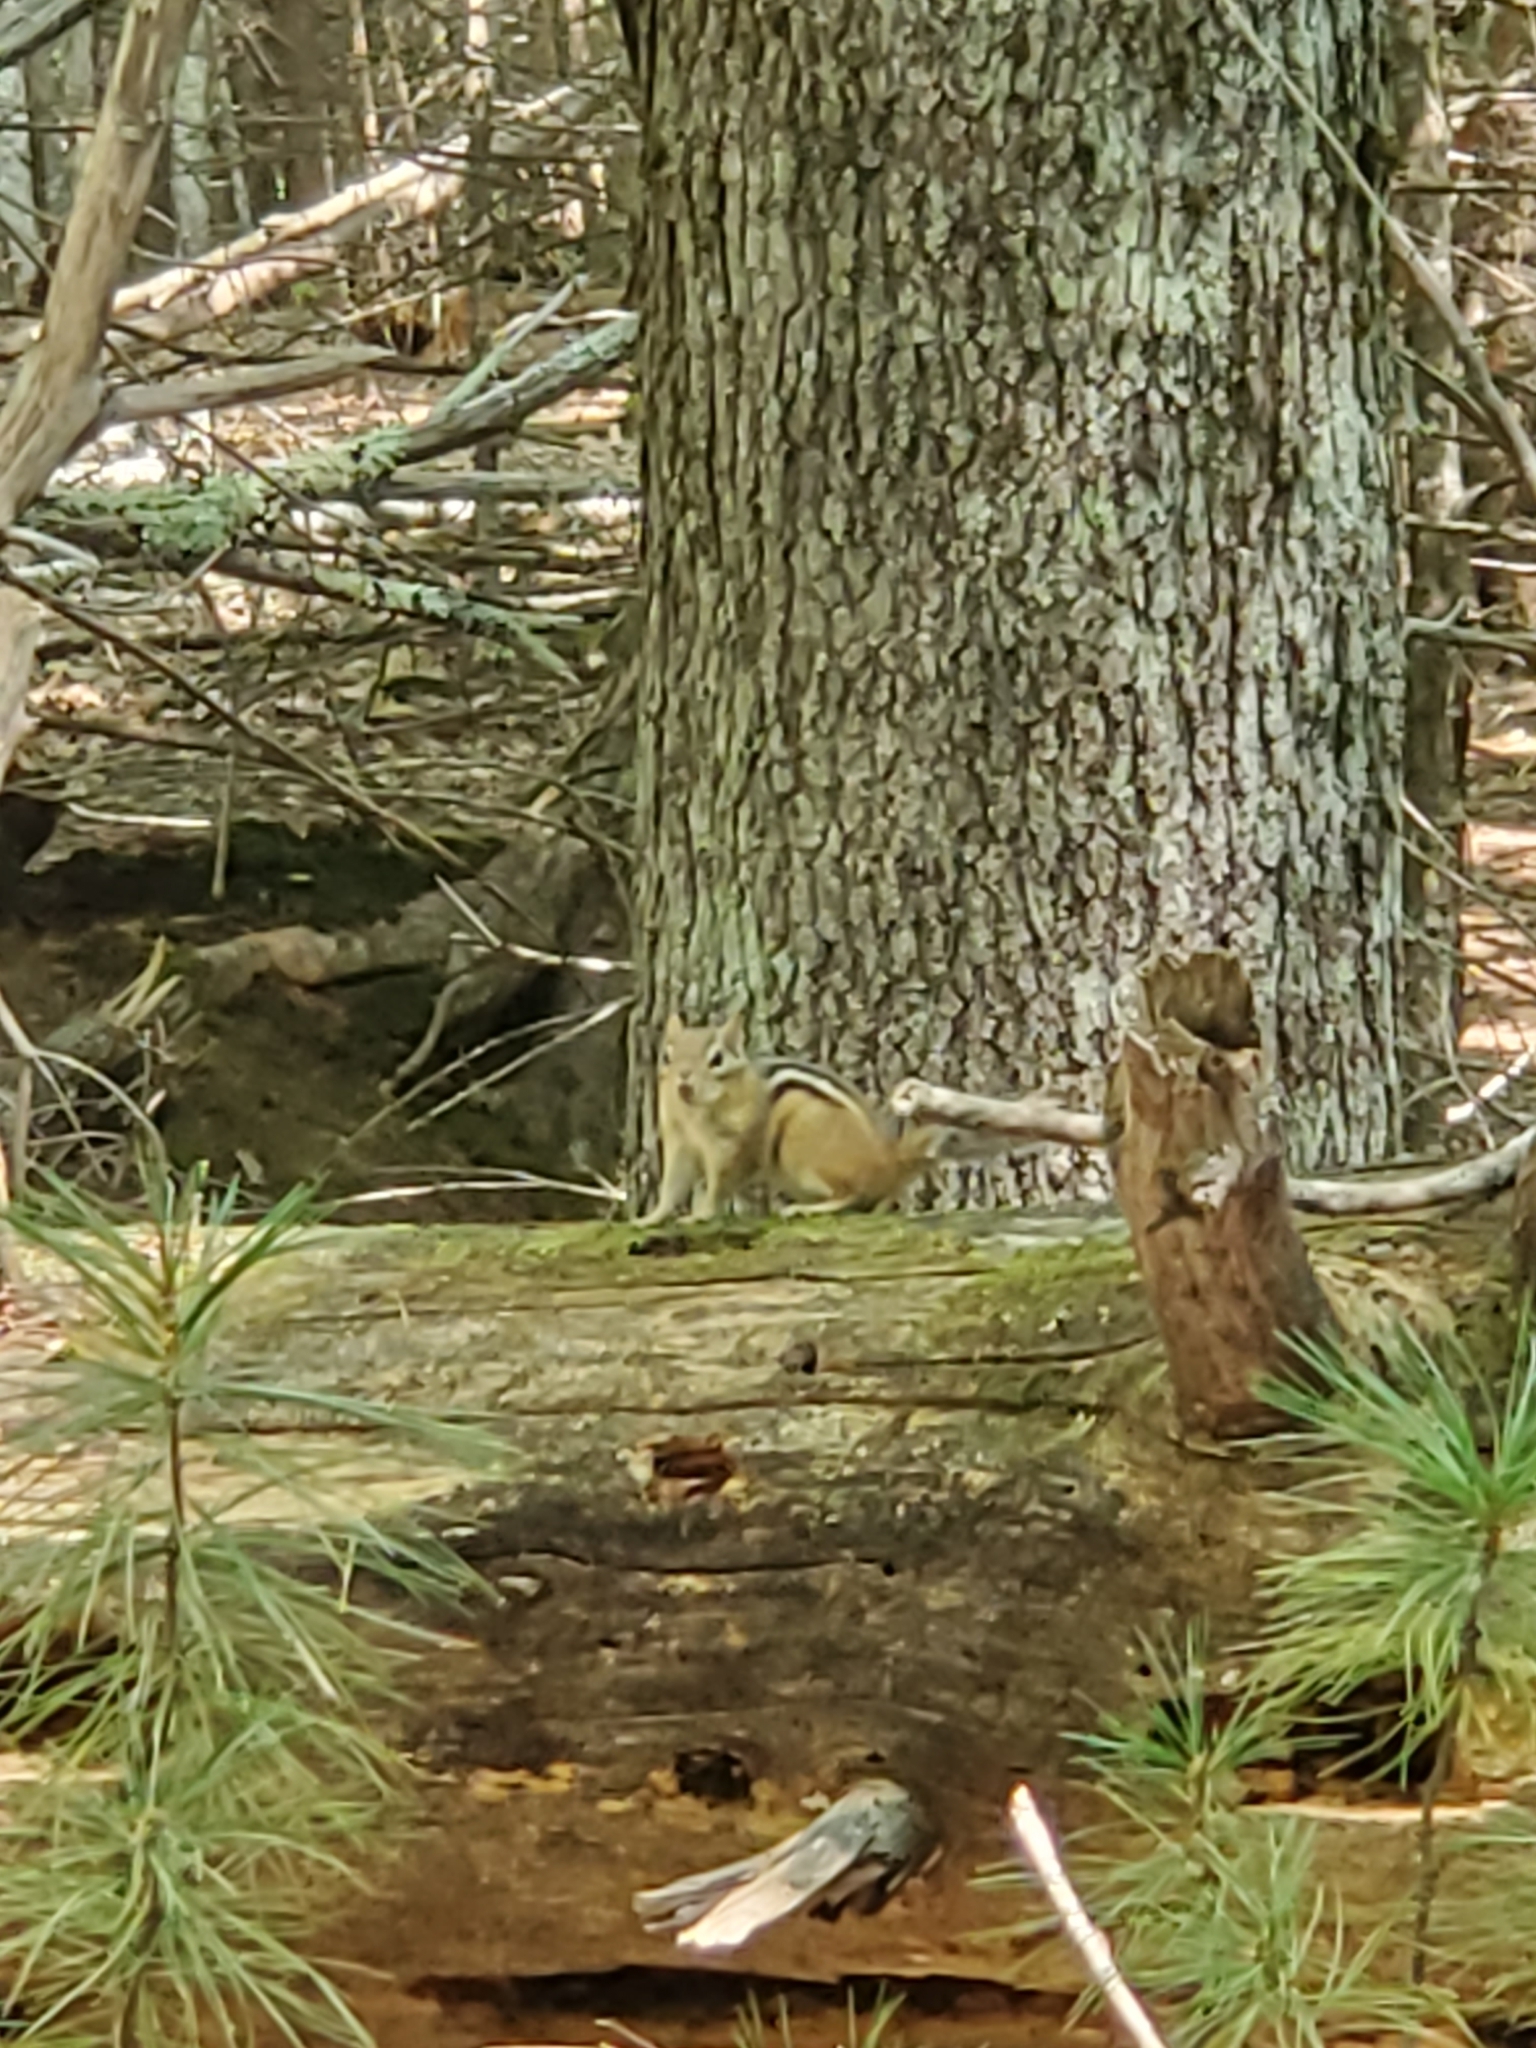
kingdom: Animalia
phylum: Chordata
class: Mammalia
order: Rodentia
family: Sciuridae
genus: Tamias
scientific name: Tamias striatus
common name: Eastern chipmunk
